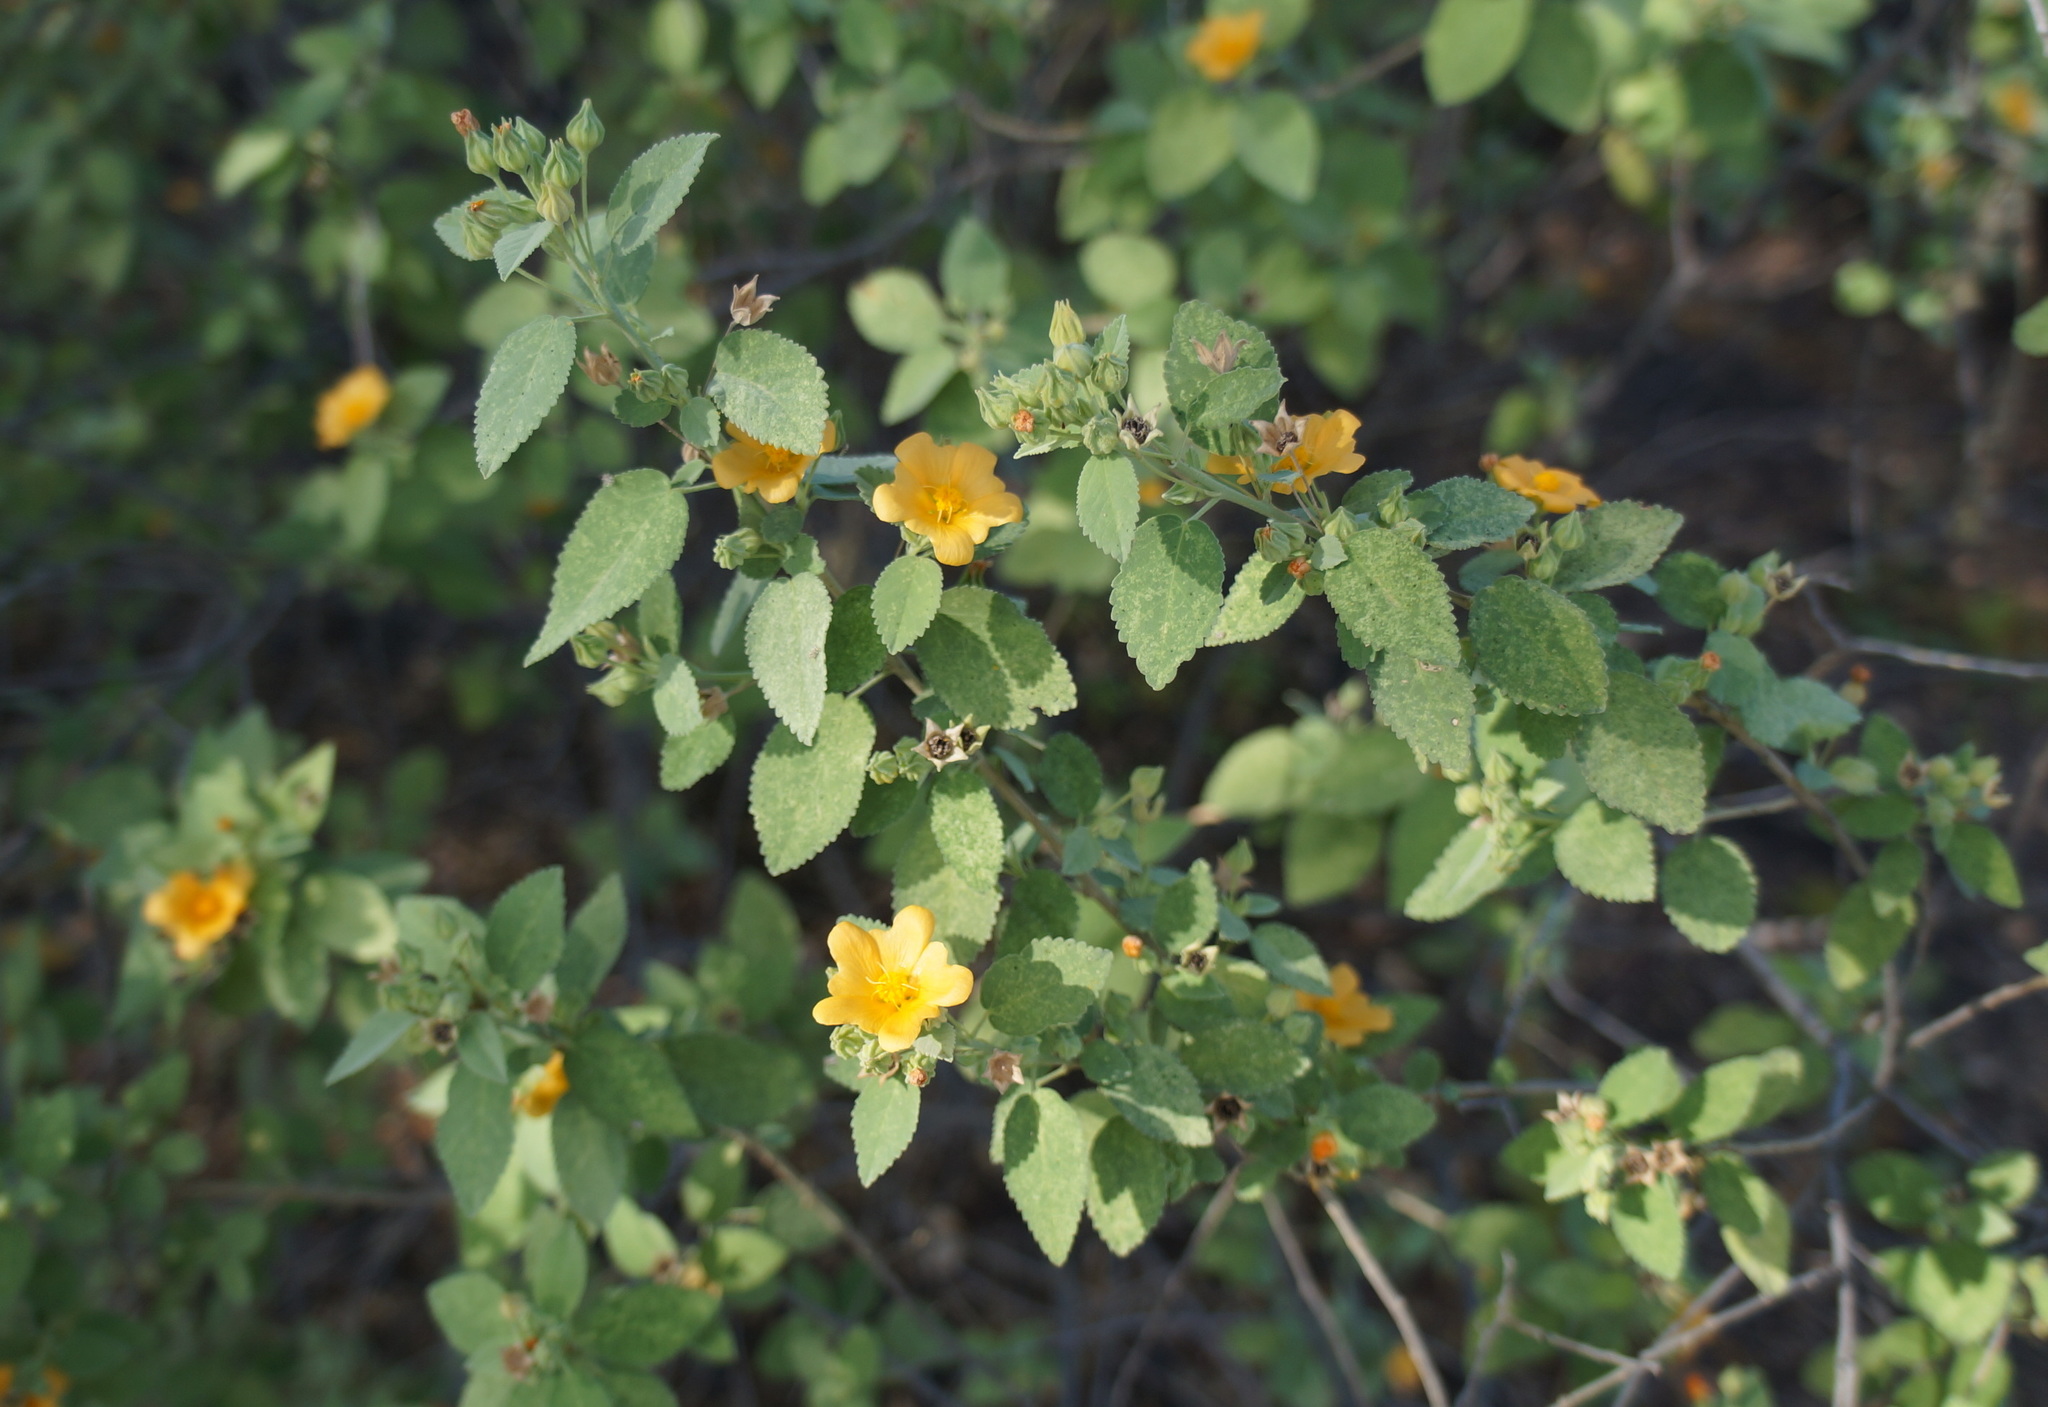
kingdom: Plantae
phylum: Tracheophyta
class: Magnoliopsida
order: Malvales
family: Malvaceae
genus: Sida
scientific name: Sida fallax
